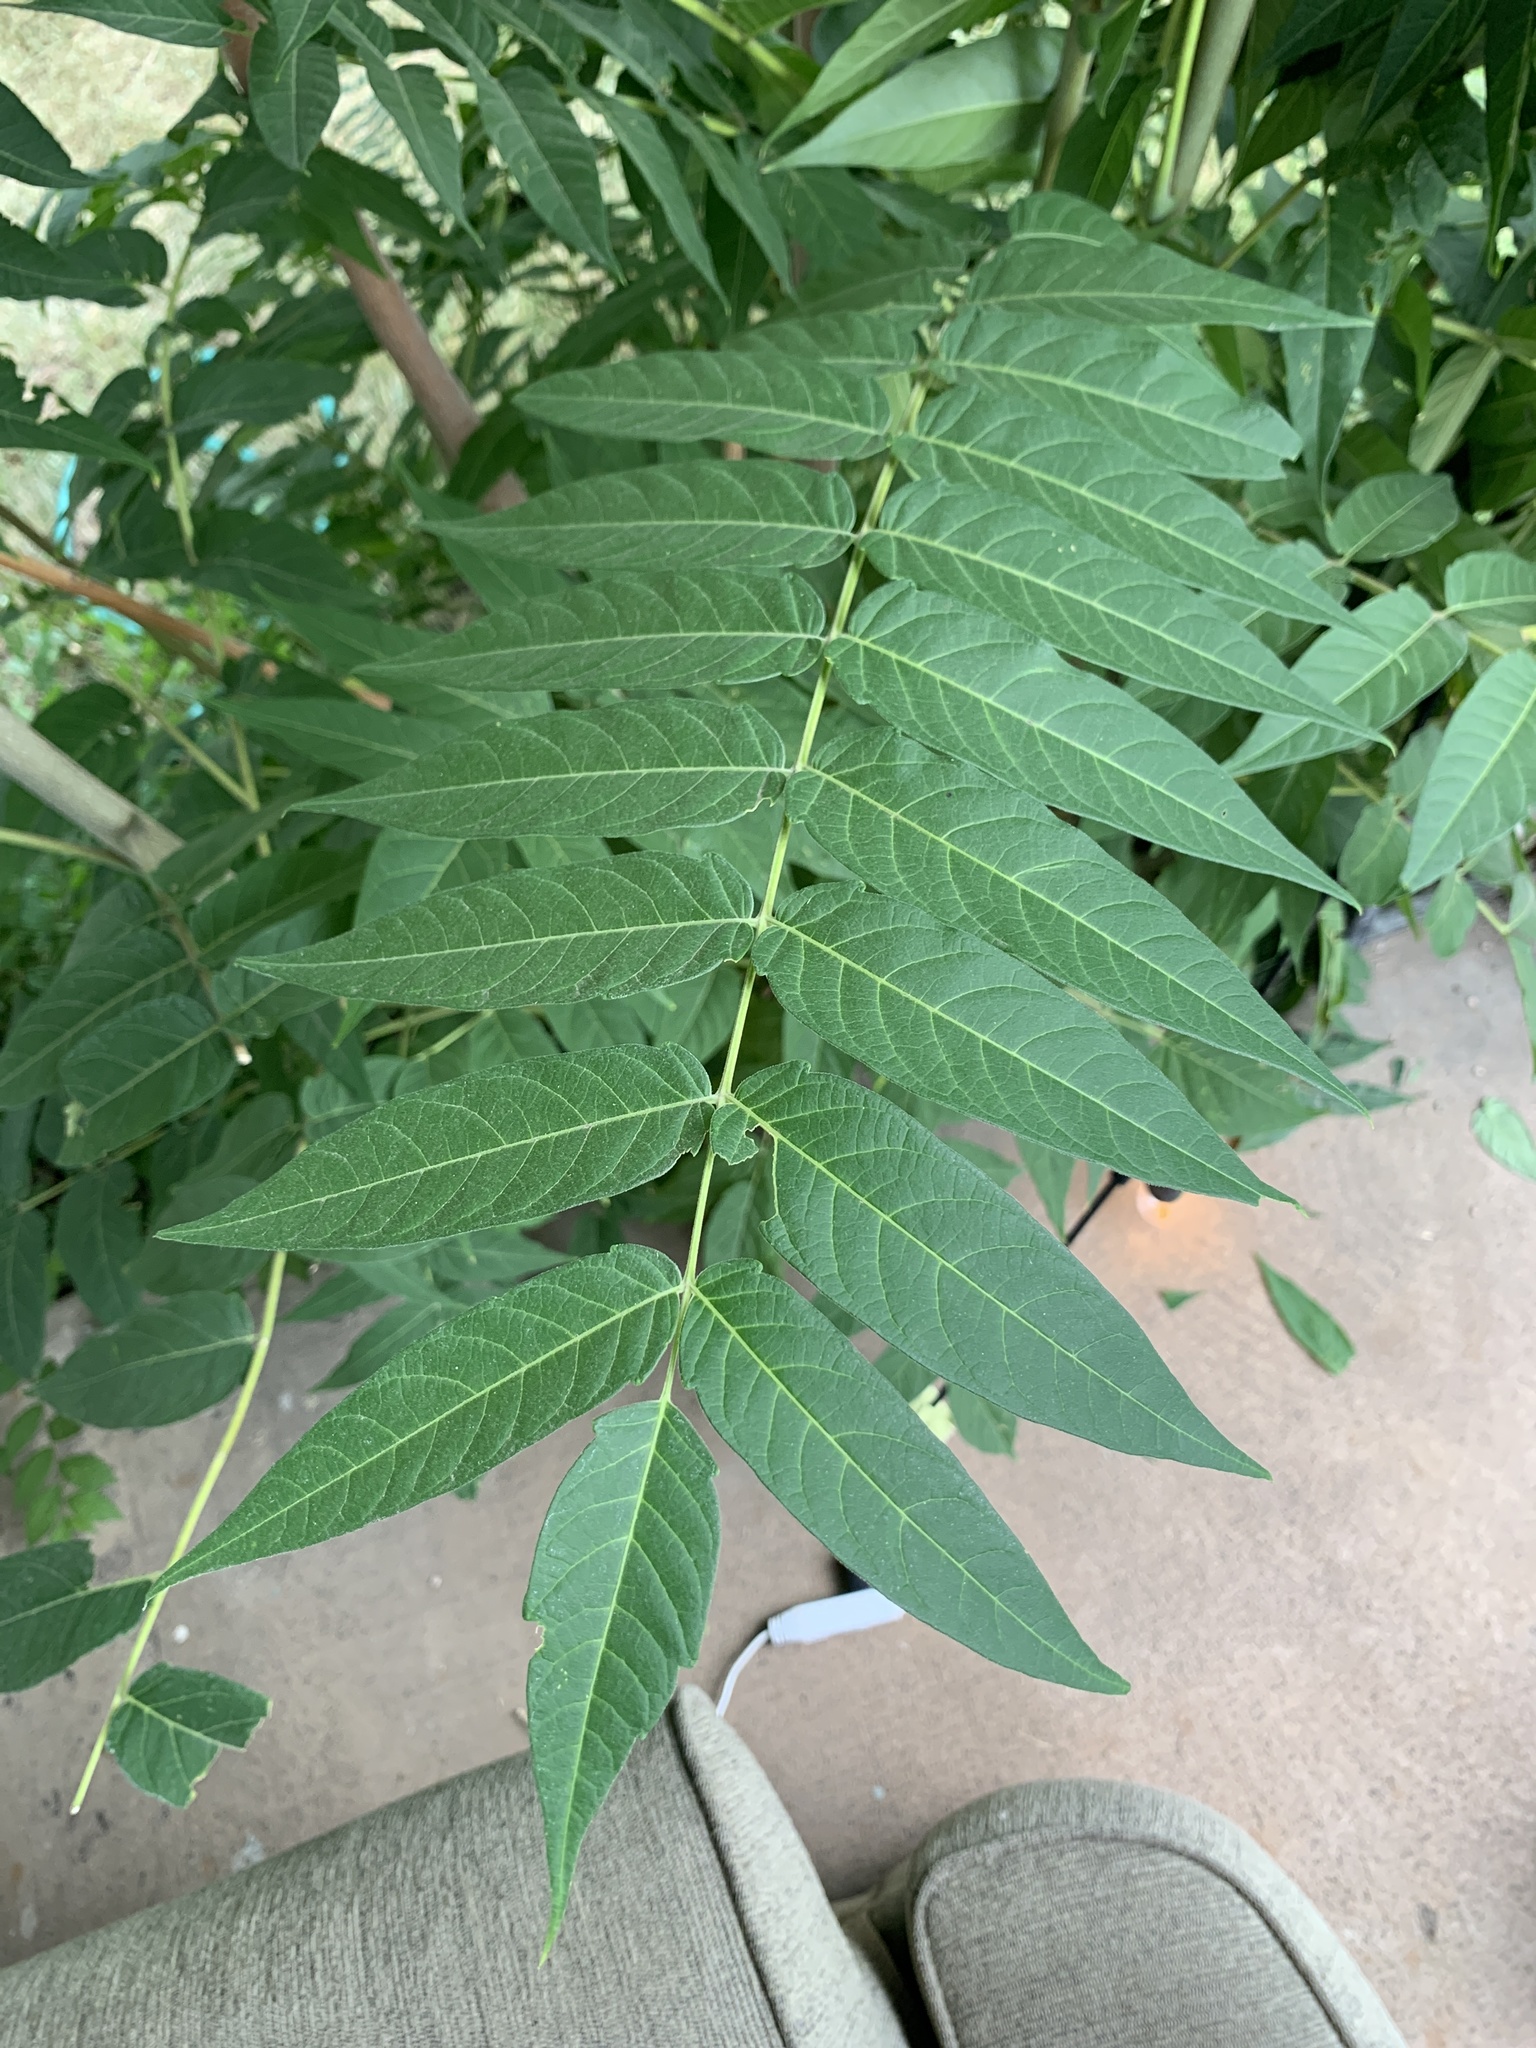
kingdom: Plantae
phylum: Tracheophyta
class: Magnoliopsida
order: Sapindales
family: Simaroubaceae
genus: Ailanthus
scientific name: Ailanthus altissima
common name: Tree-of-heaven
